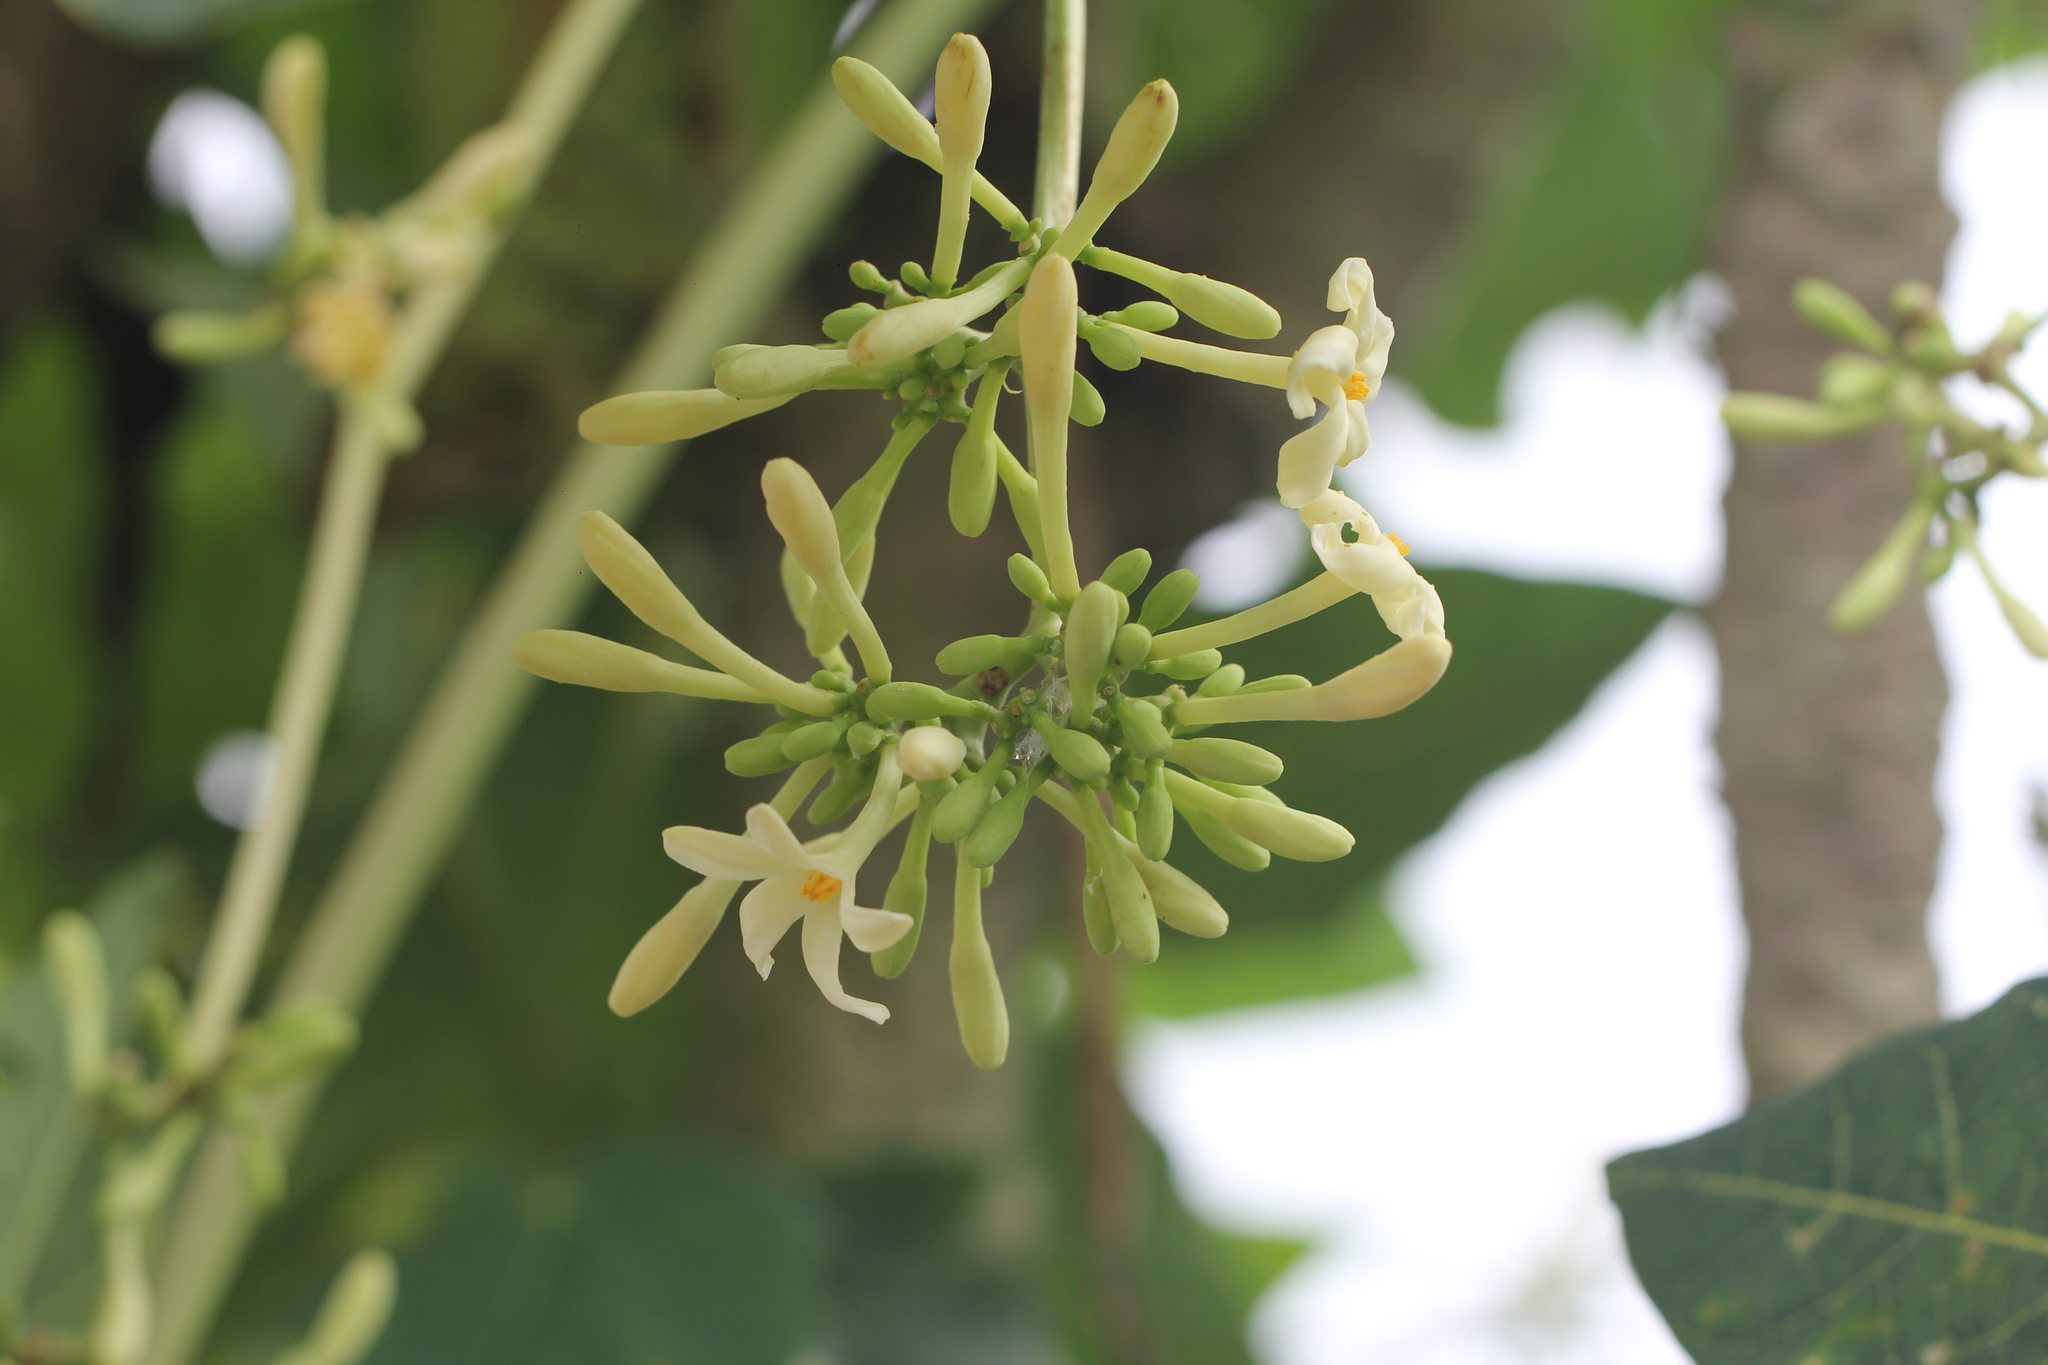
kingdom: Plantae
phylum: Tracheophyta
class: Magnoliopsida
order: Brassicales
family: Caricaceae
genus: Carica
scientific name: Carica papaya
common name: Papaya
